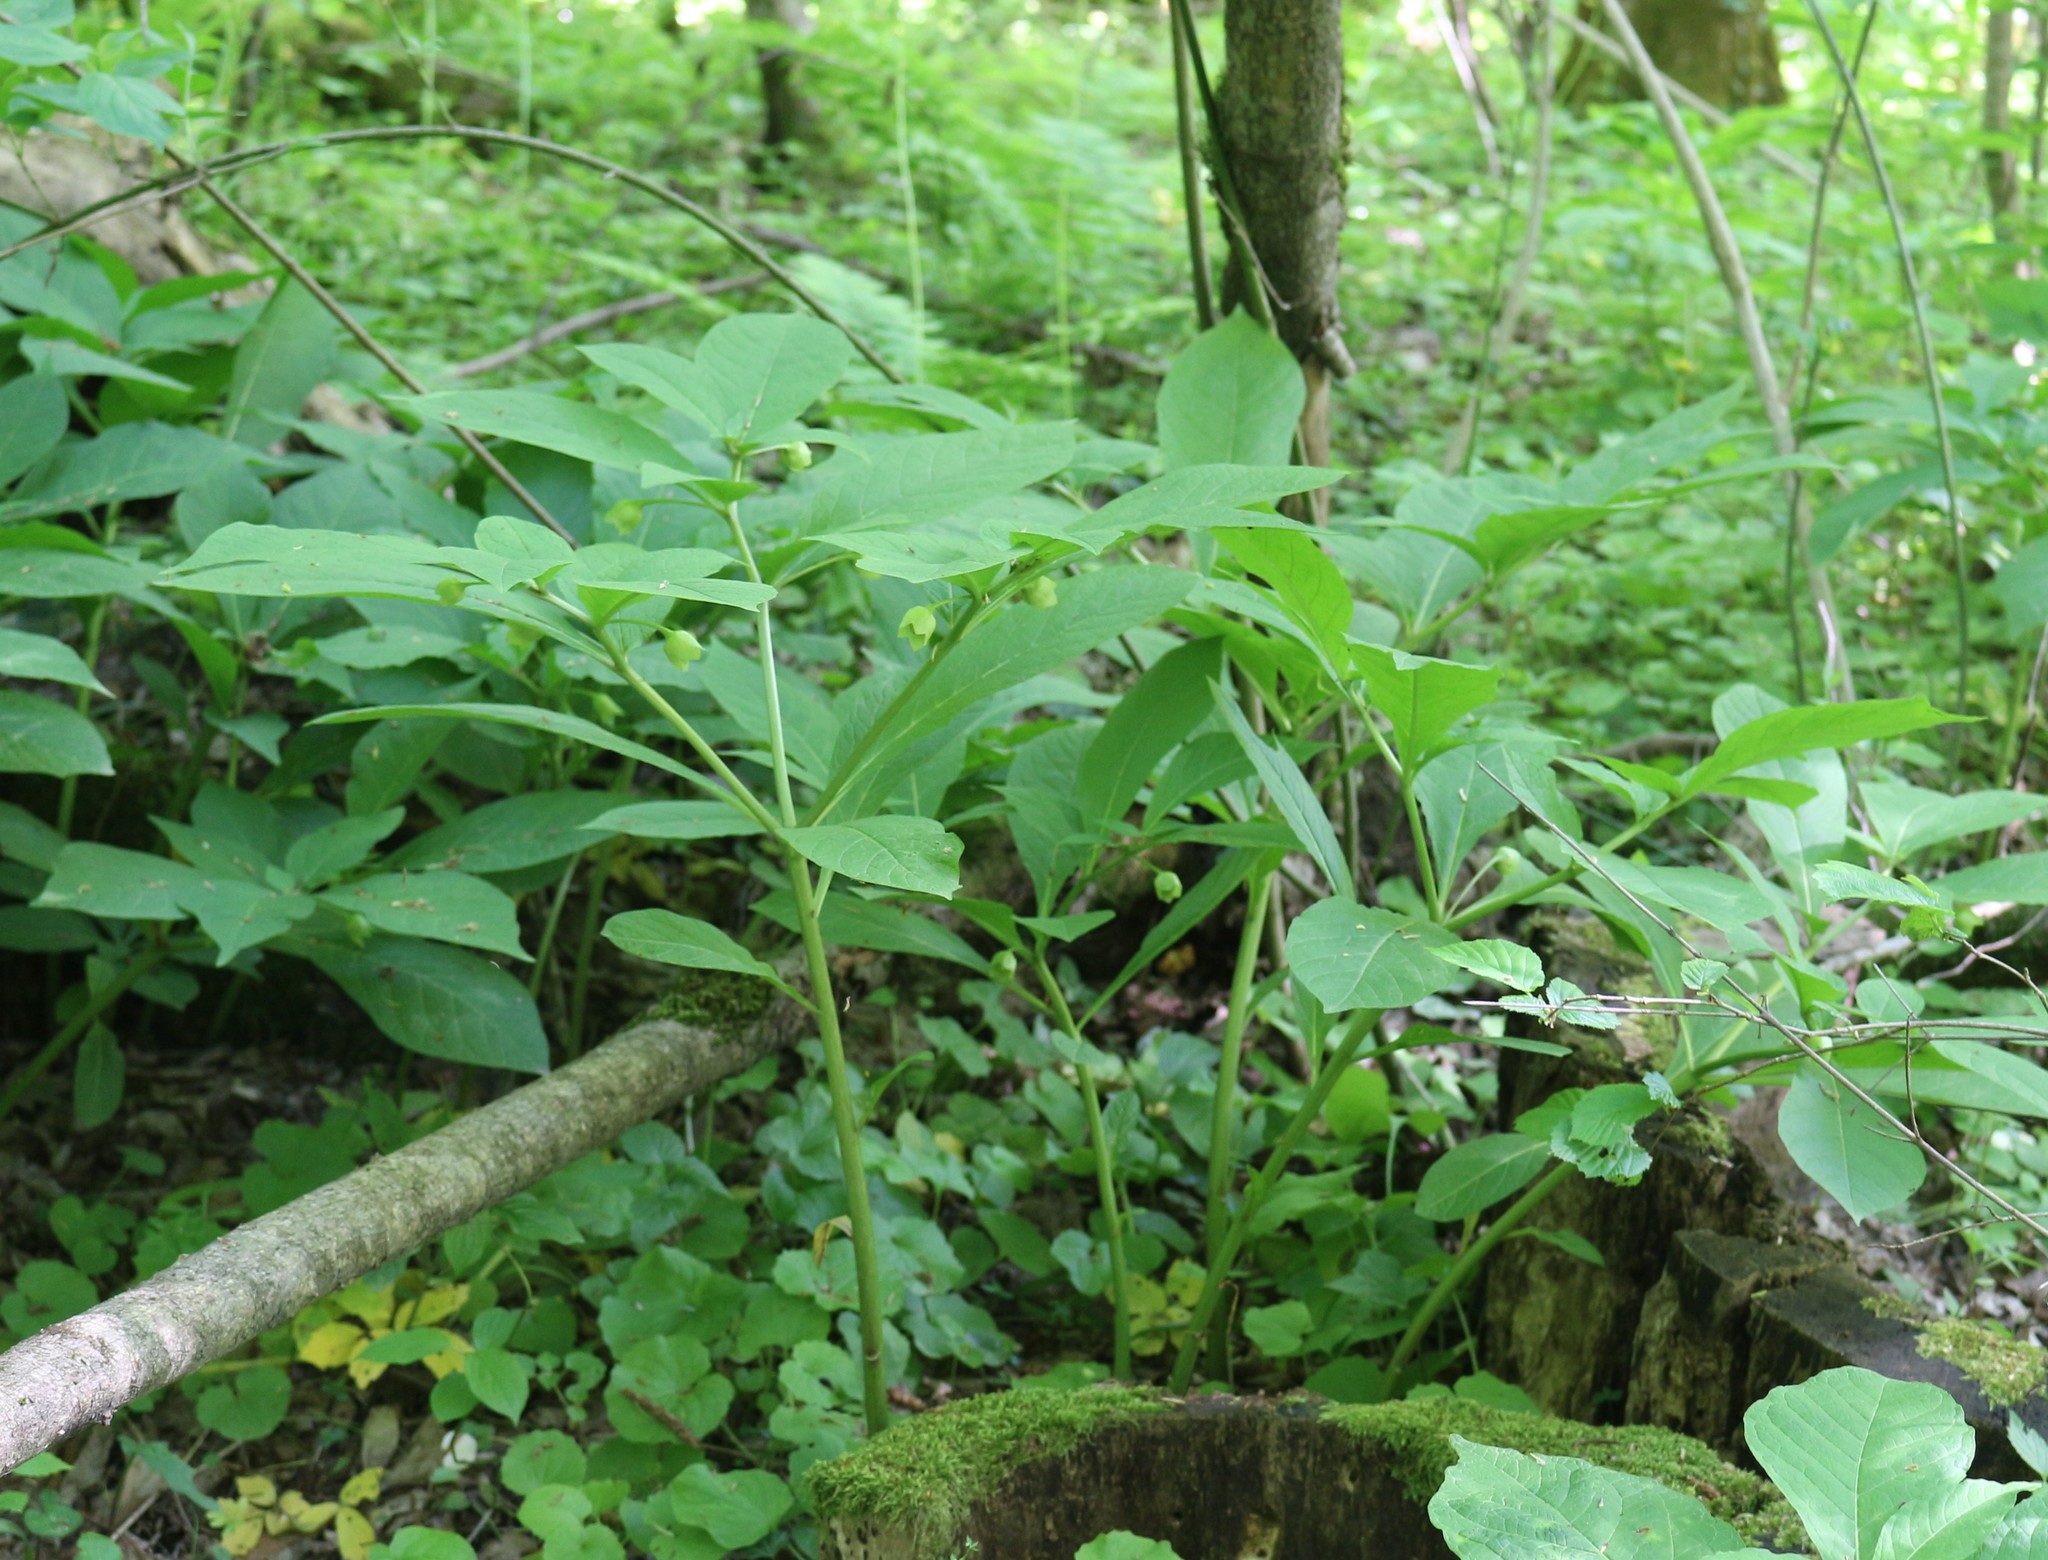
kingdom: Plantae
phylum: Tracheophyta
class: Magnoliopsida
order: Solanales
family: Solanaceae
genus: Scopolia
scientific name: Scopolia carniolica
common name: Scopolia
